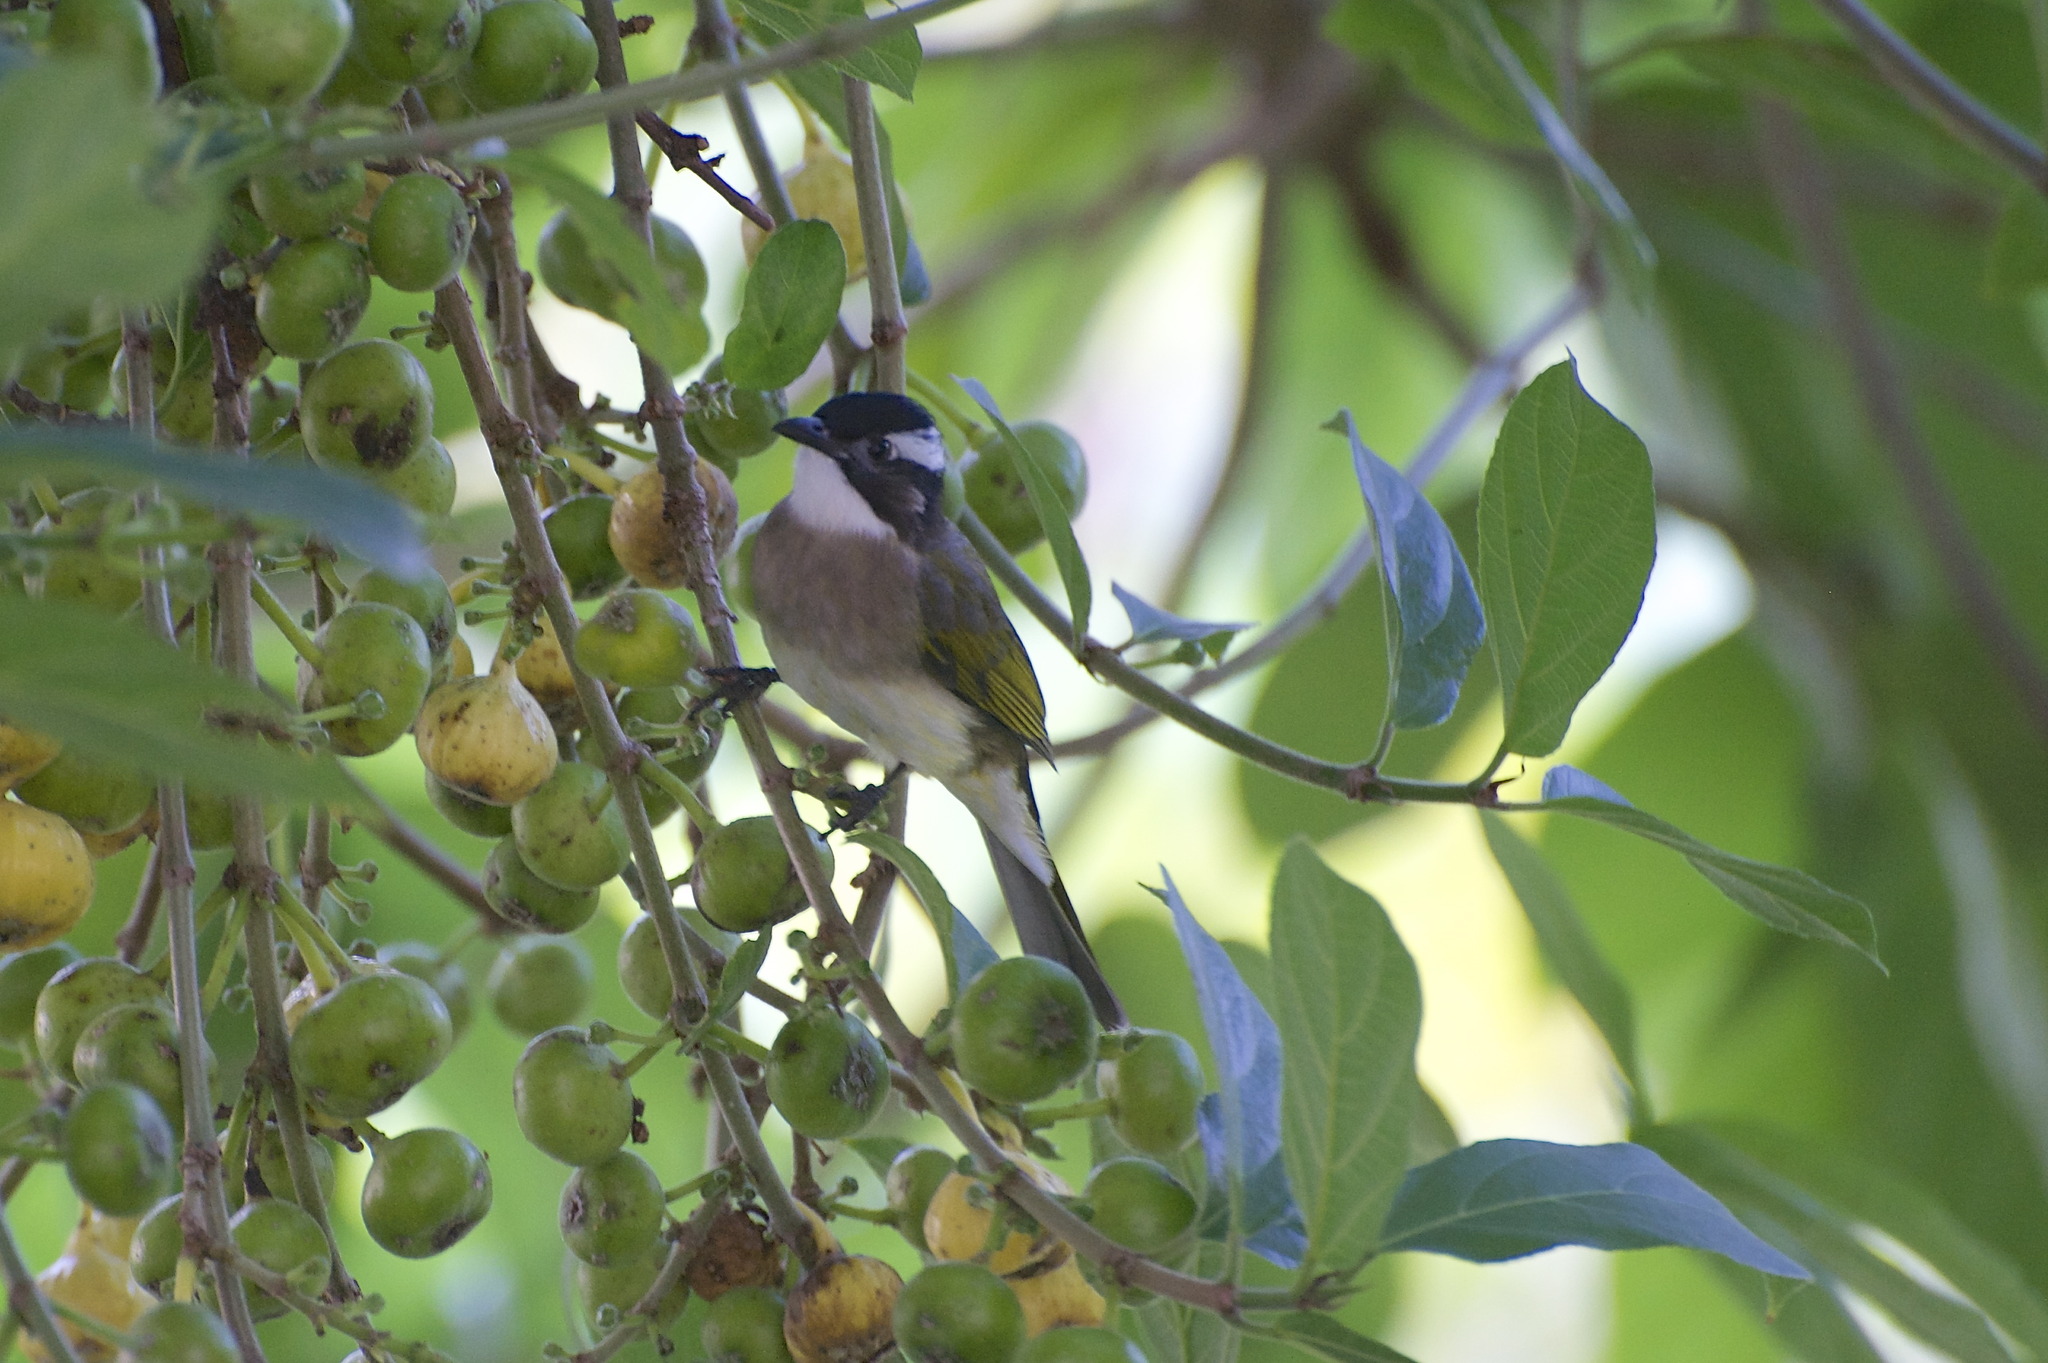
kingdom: Animalia
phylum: Chordata
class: Aves
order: Passeriformes
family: Pycnonotidae
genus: Pycnonotus
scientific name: Pycnonotus sinensis
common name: Light-vented bulbul
